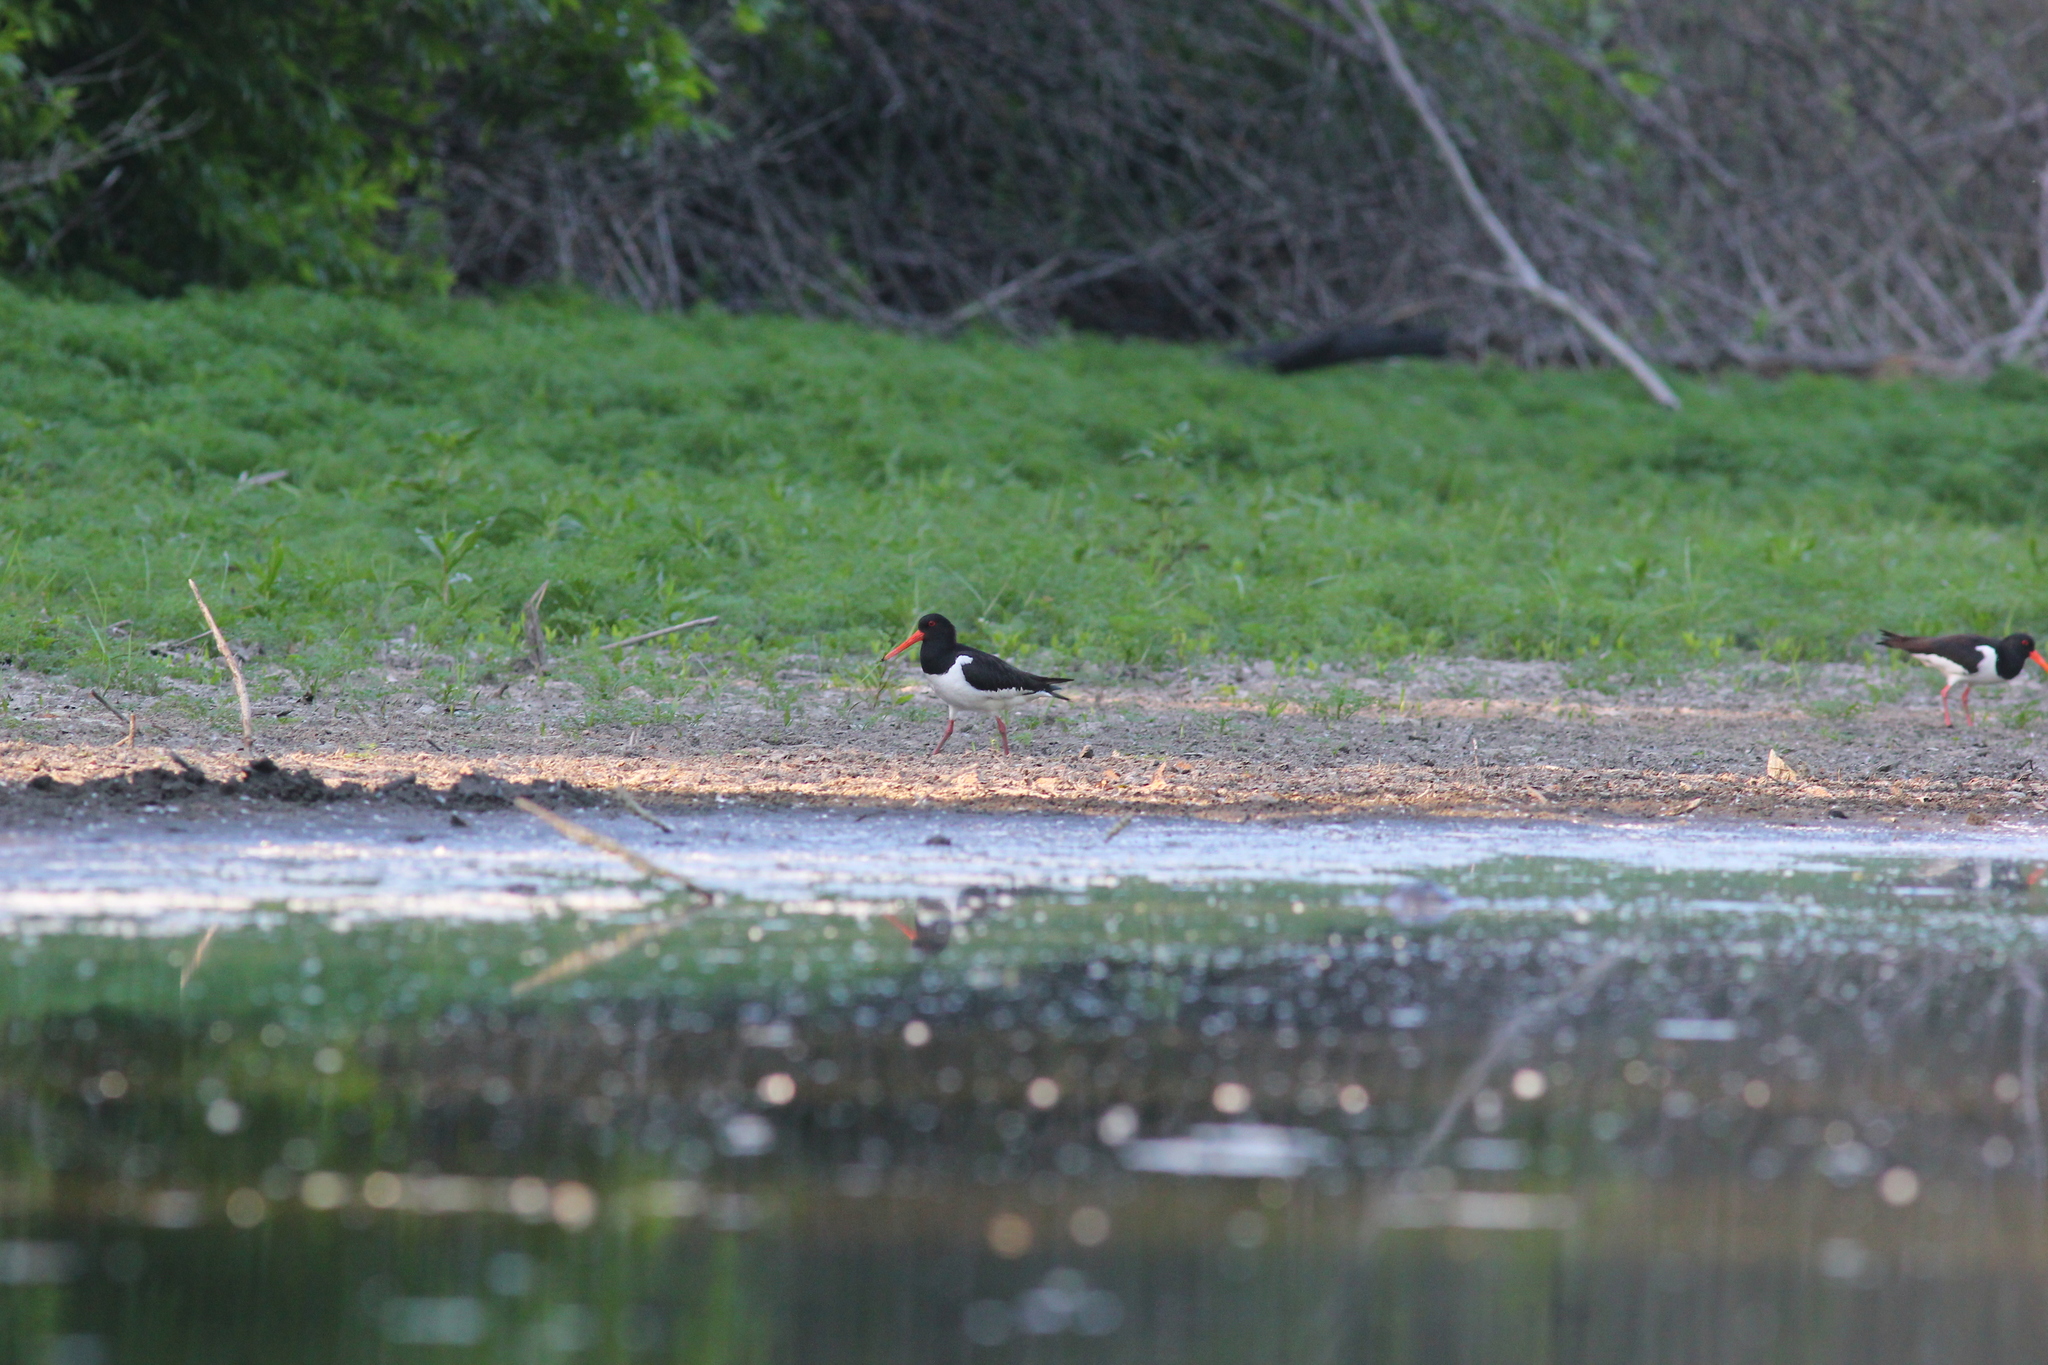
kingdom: Animalia
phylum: Chordata
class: Aves
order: Charadriiformes
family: Haematopodidae
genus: Haematopus
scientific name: Haematopus ostralegus
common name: Eurasian oystercatcher
